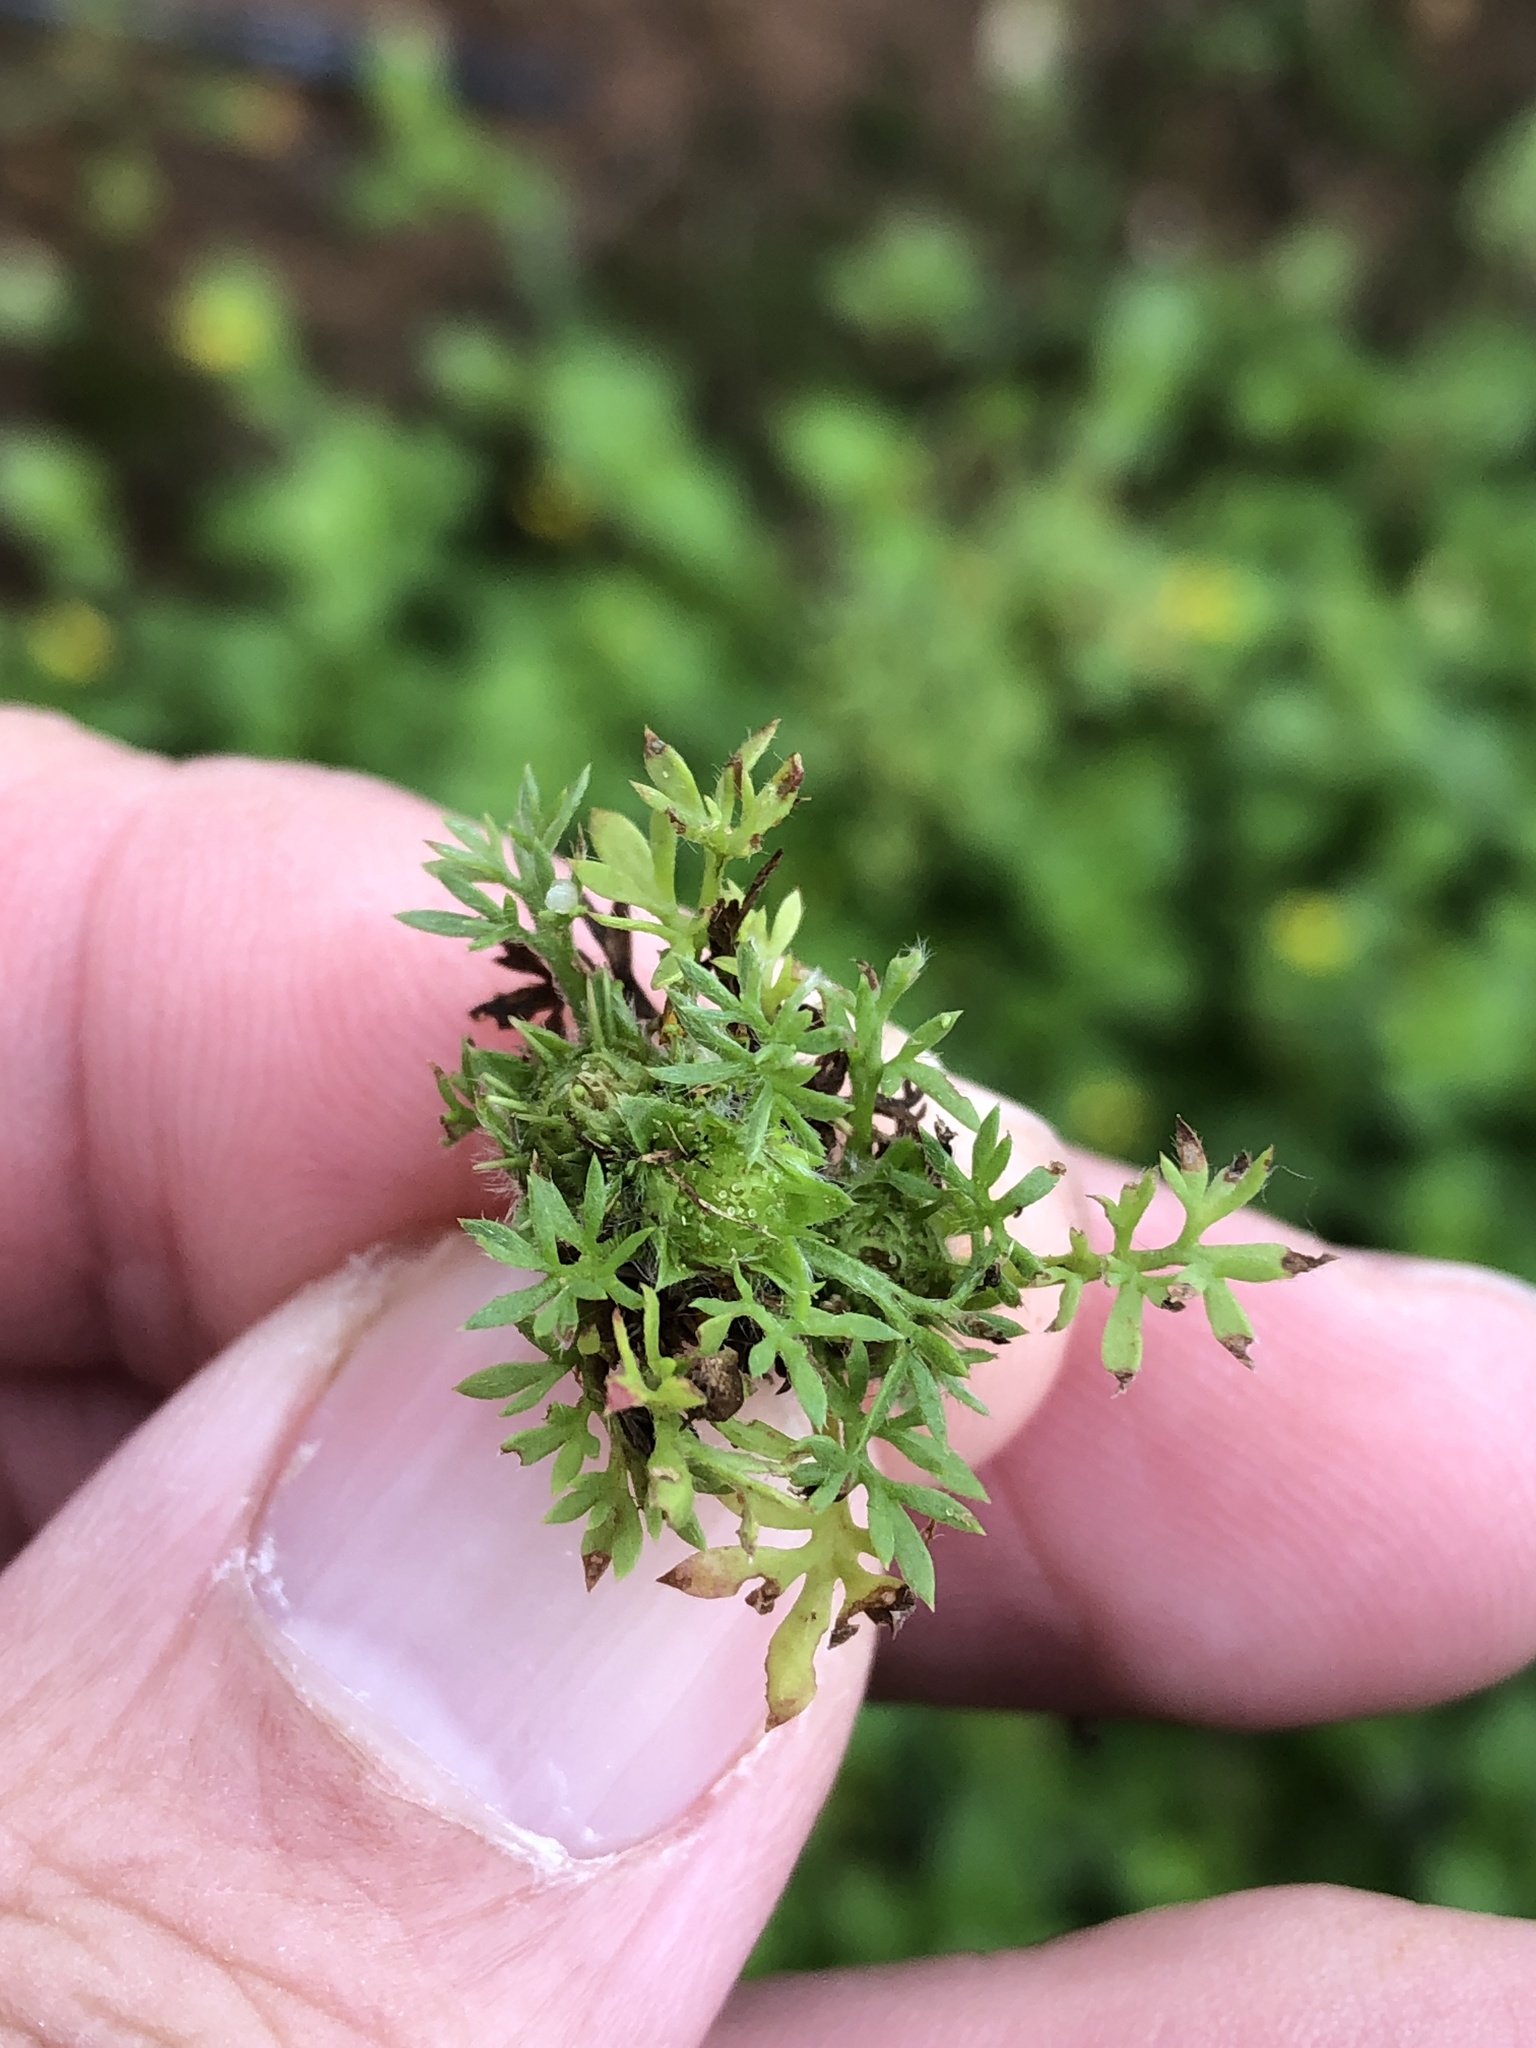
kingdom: Plantae
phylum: Tracheophyta
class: Magnoliopsida
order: Asterales
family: Asteraceae
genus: Soliva
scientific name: Soliva sessilis
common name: Field burrweed
